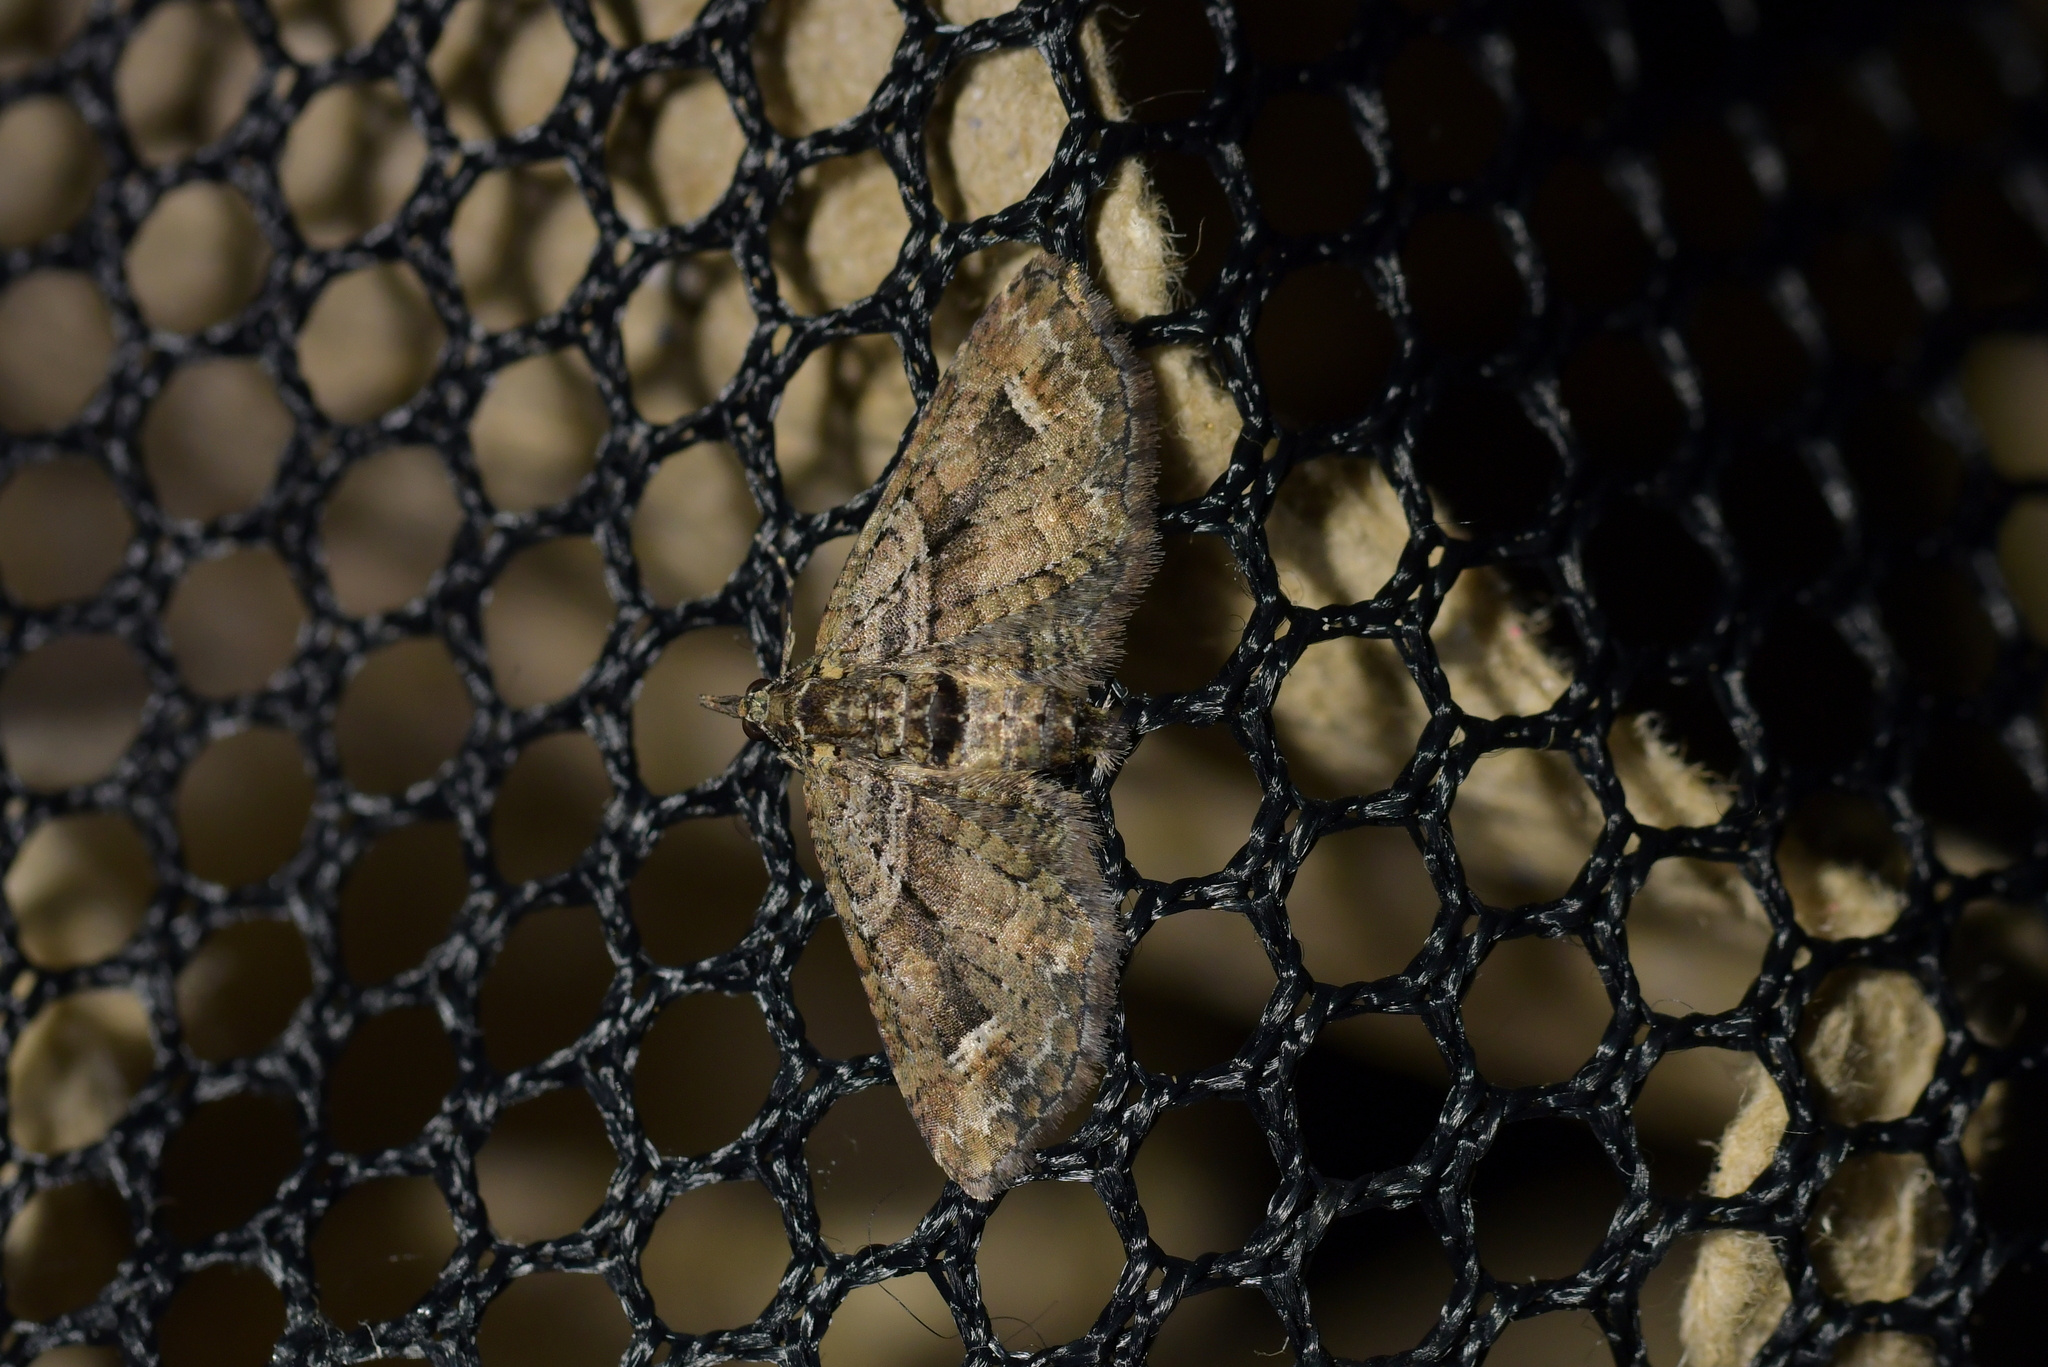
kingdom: Animalia
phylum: Arthropoda
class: Insecta
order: Lepidoptera
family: Geometridae
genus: Idaea
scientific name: Idaea mutanda
